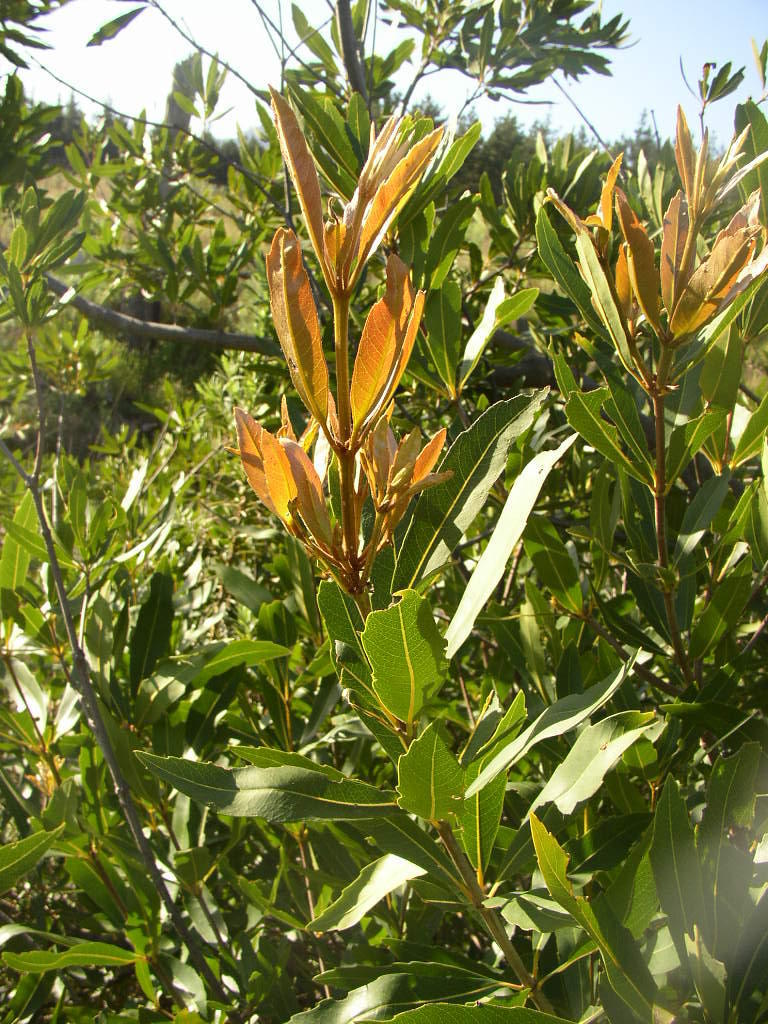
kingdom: Plantae
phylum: Tracheophyta
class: Magnoliopsida
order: Proteales
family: Proteaceae
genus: Brabejum
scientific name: Brabejum stellatifolium
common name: Wild almond
